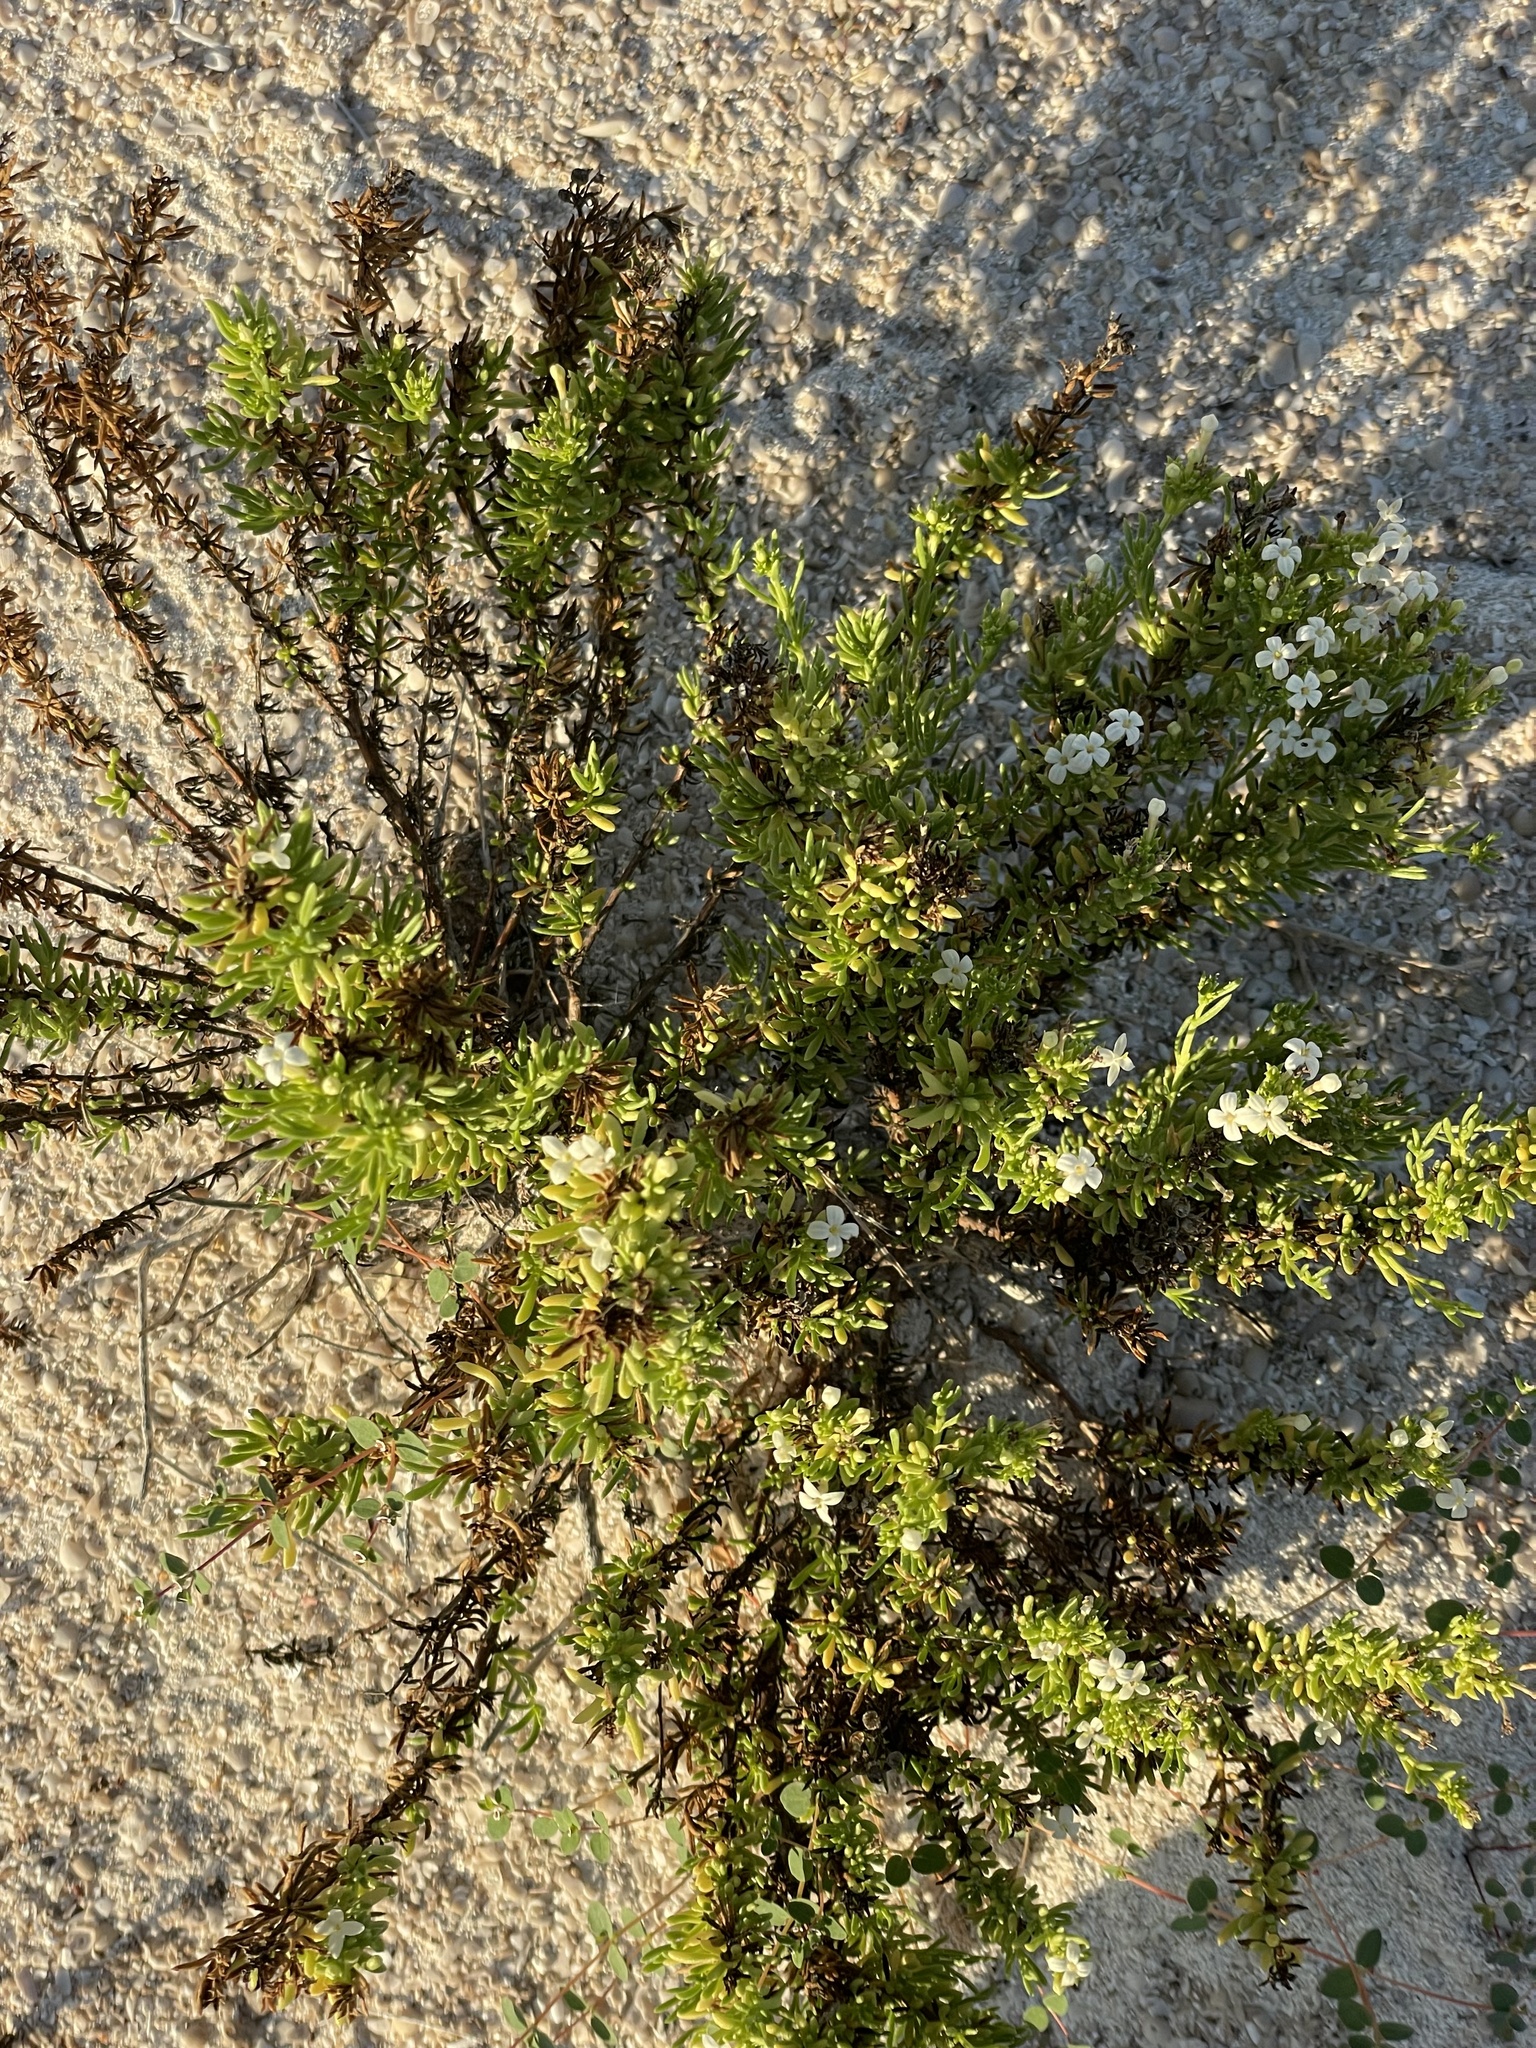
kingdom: Plantae
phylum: Tracheophyta
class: Magnoliopsida
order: Gentianales
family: Rubiaceae
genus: Stenotis
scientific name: Stenotis mucronata
